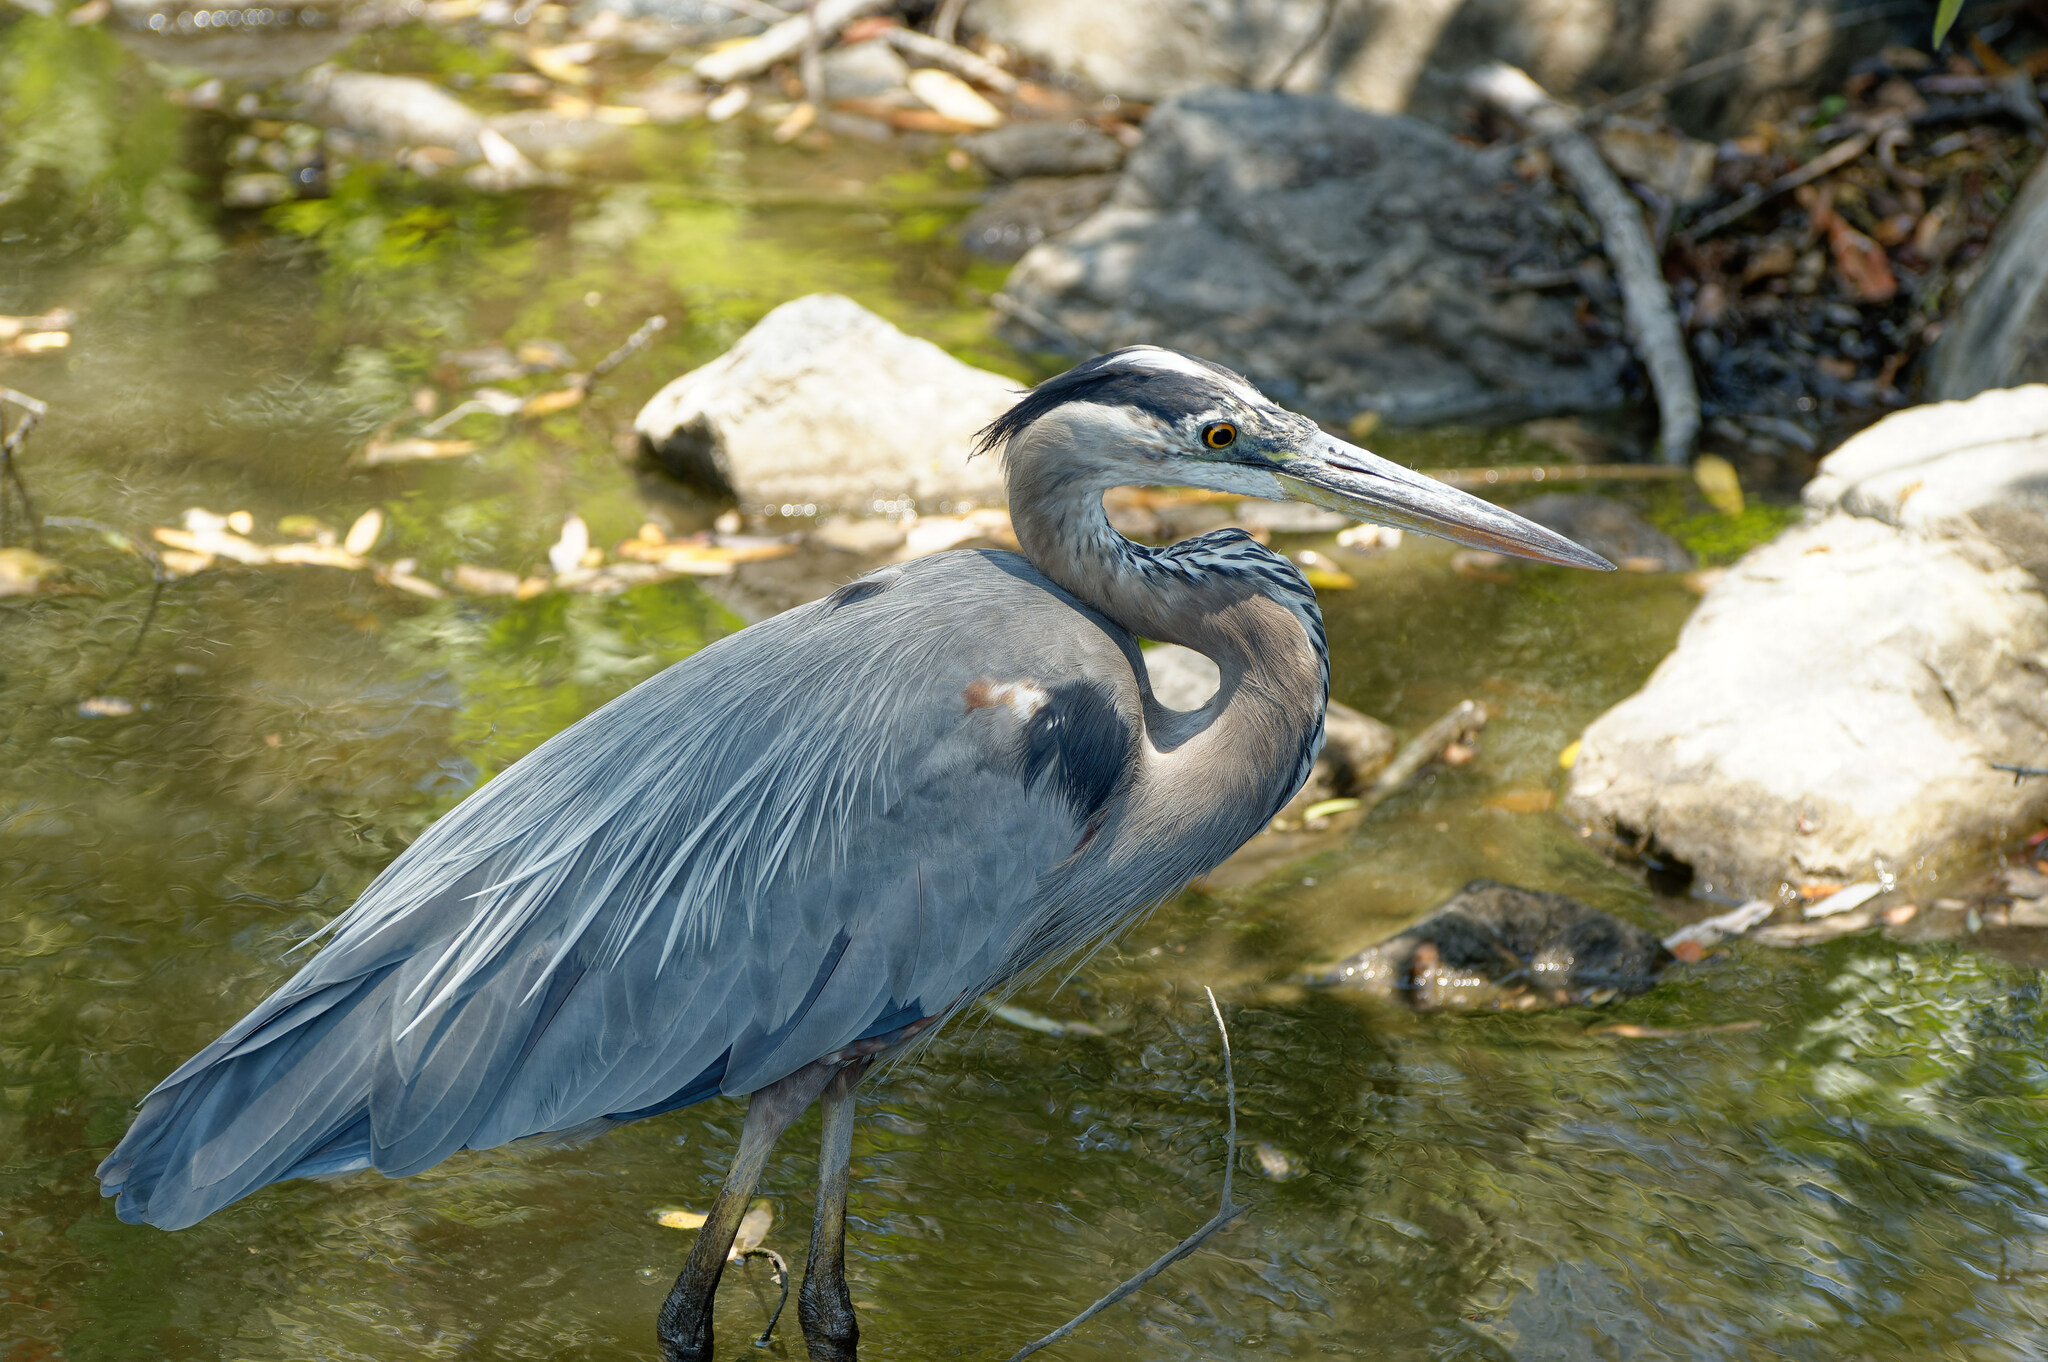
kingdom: Animalia
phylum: Chordata
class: Aves
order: Pelecaniformes
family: Ardeidae
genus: Ardea
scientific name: Ardea herodias
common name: Great blue heron
